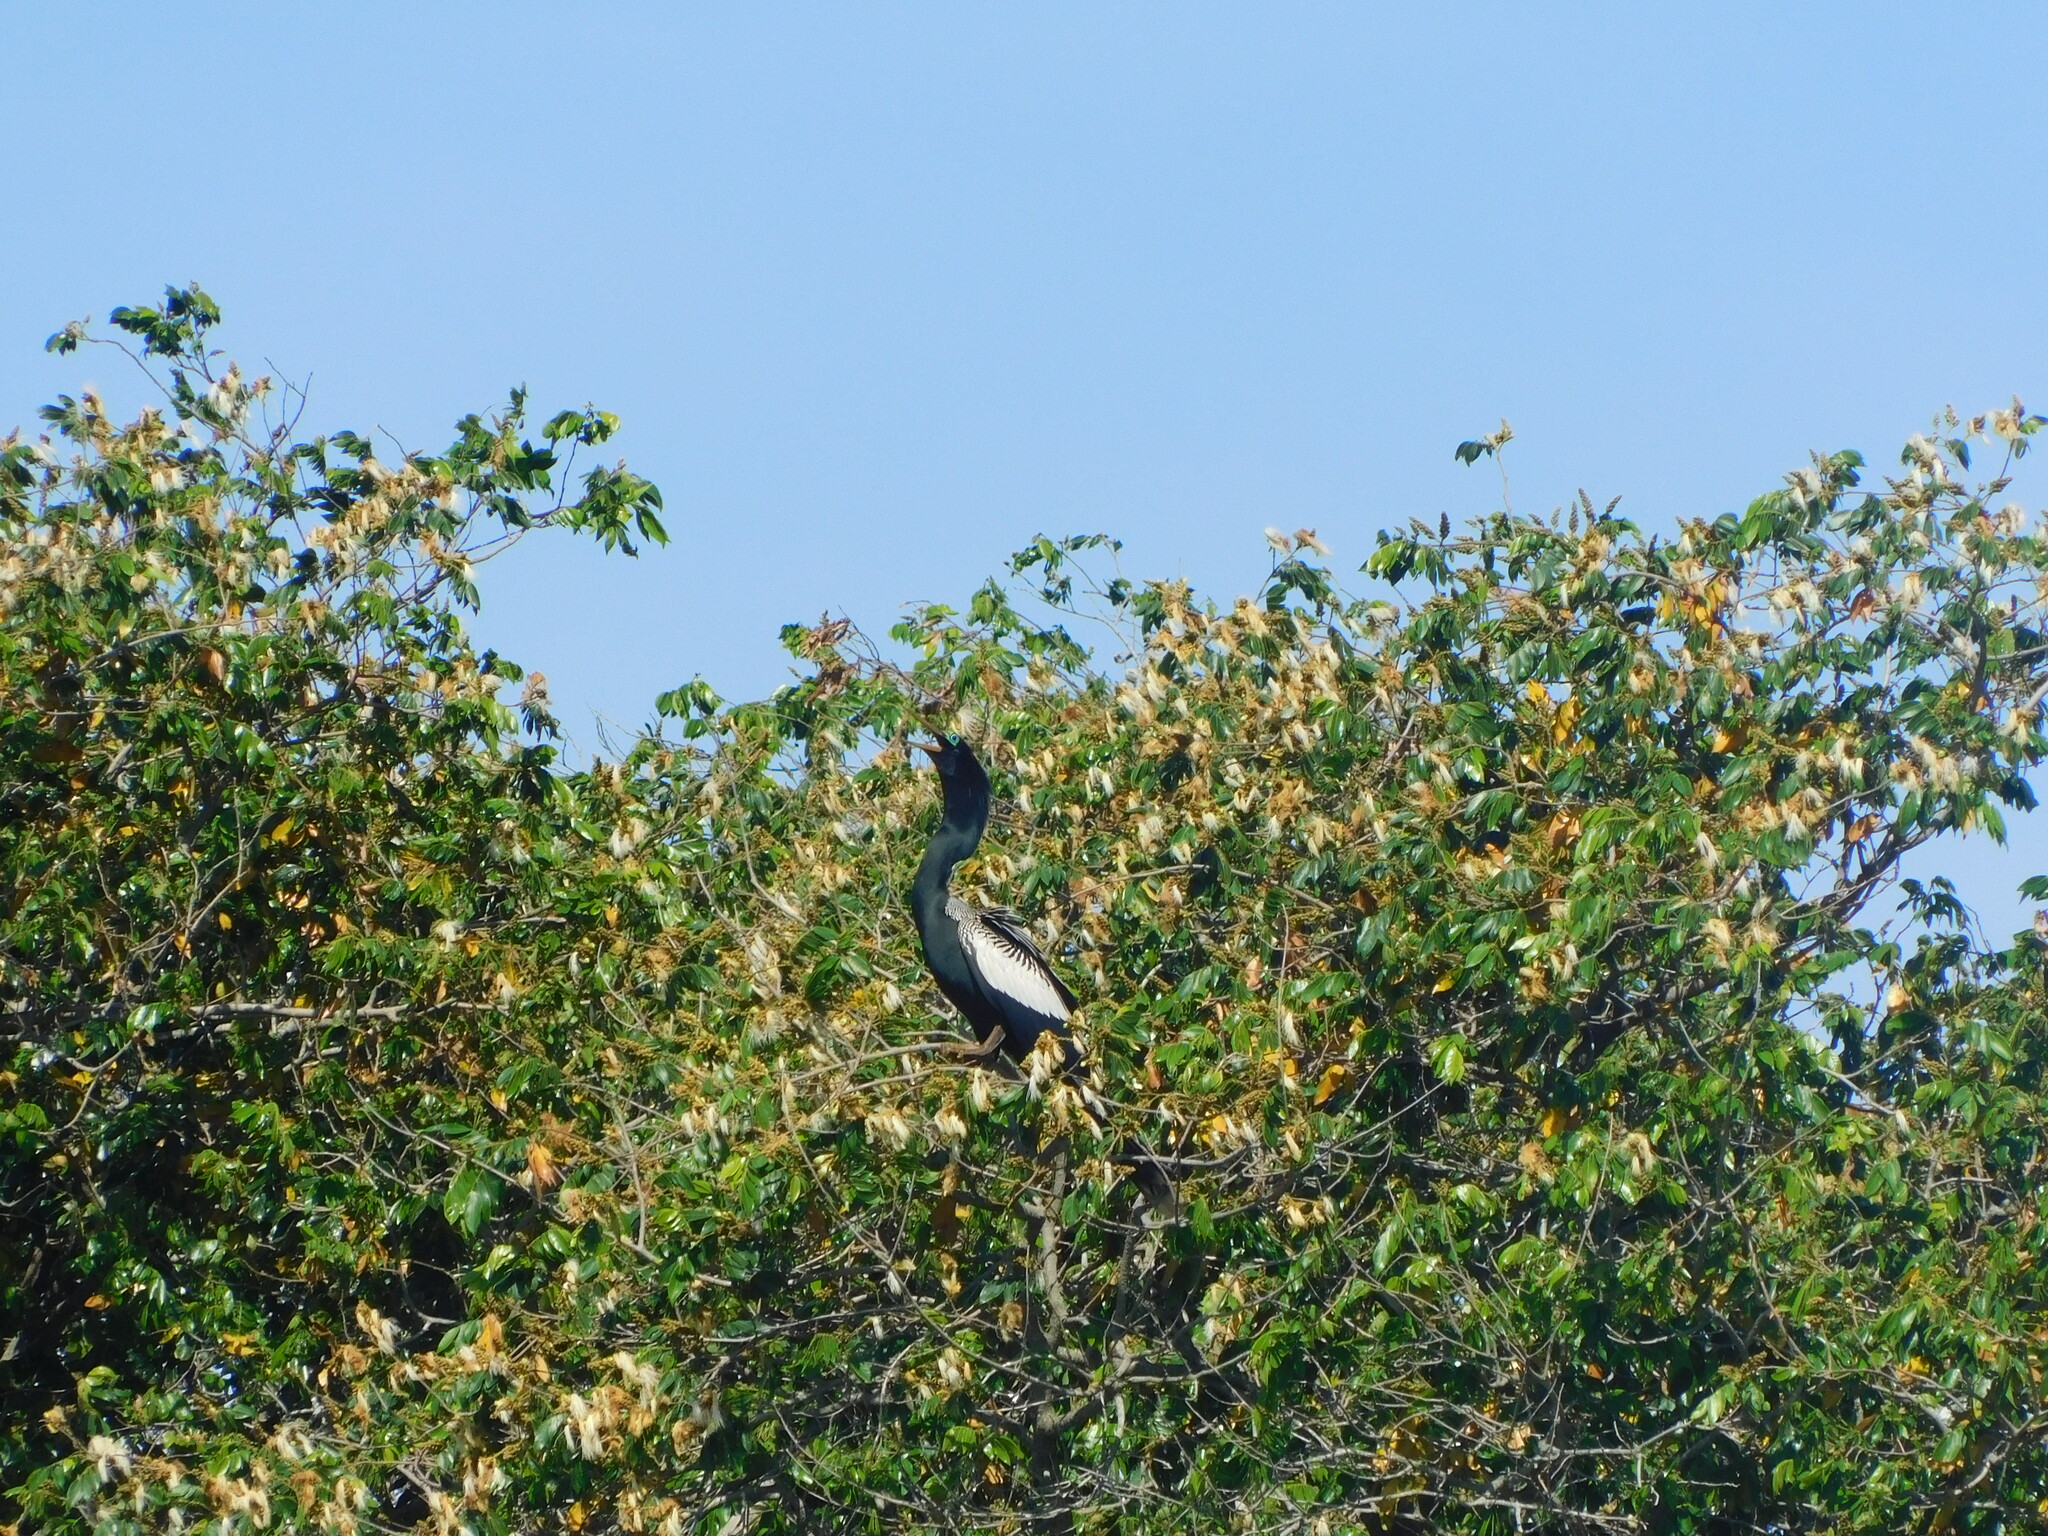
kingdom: Animalia
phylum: Chordata
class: Aves
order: Suliformes
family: Anhingidae
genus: Anhinga
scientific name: Anhinga anhinga
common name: Anhinga
